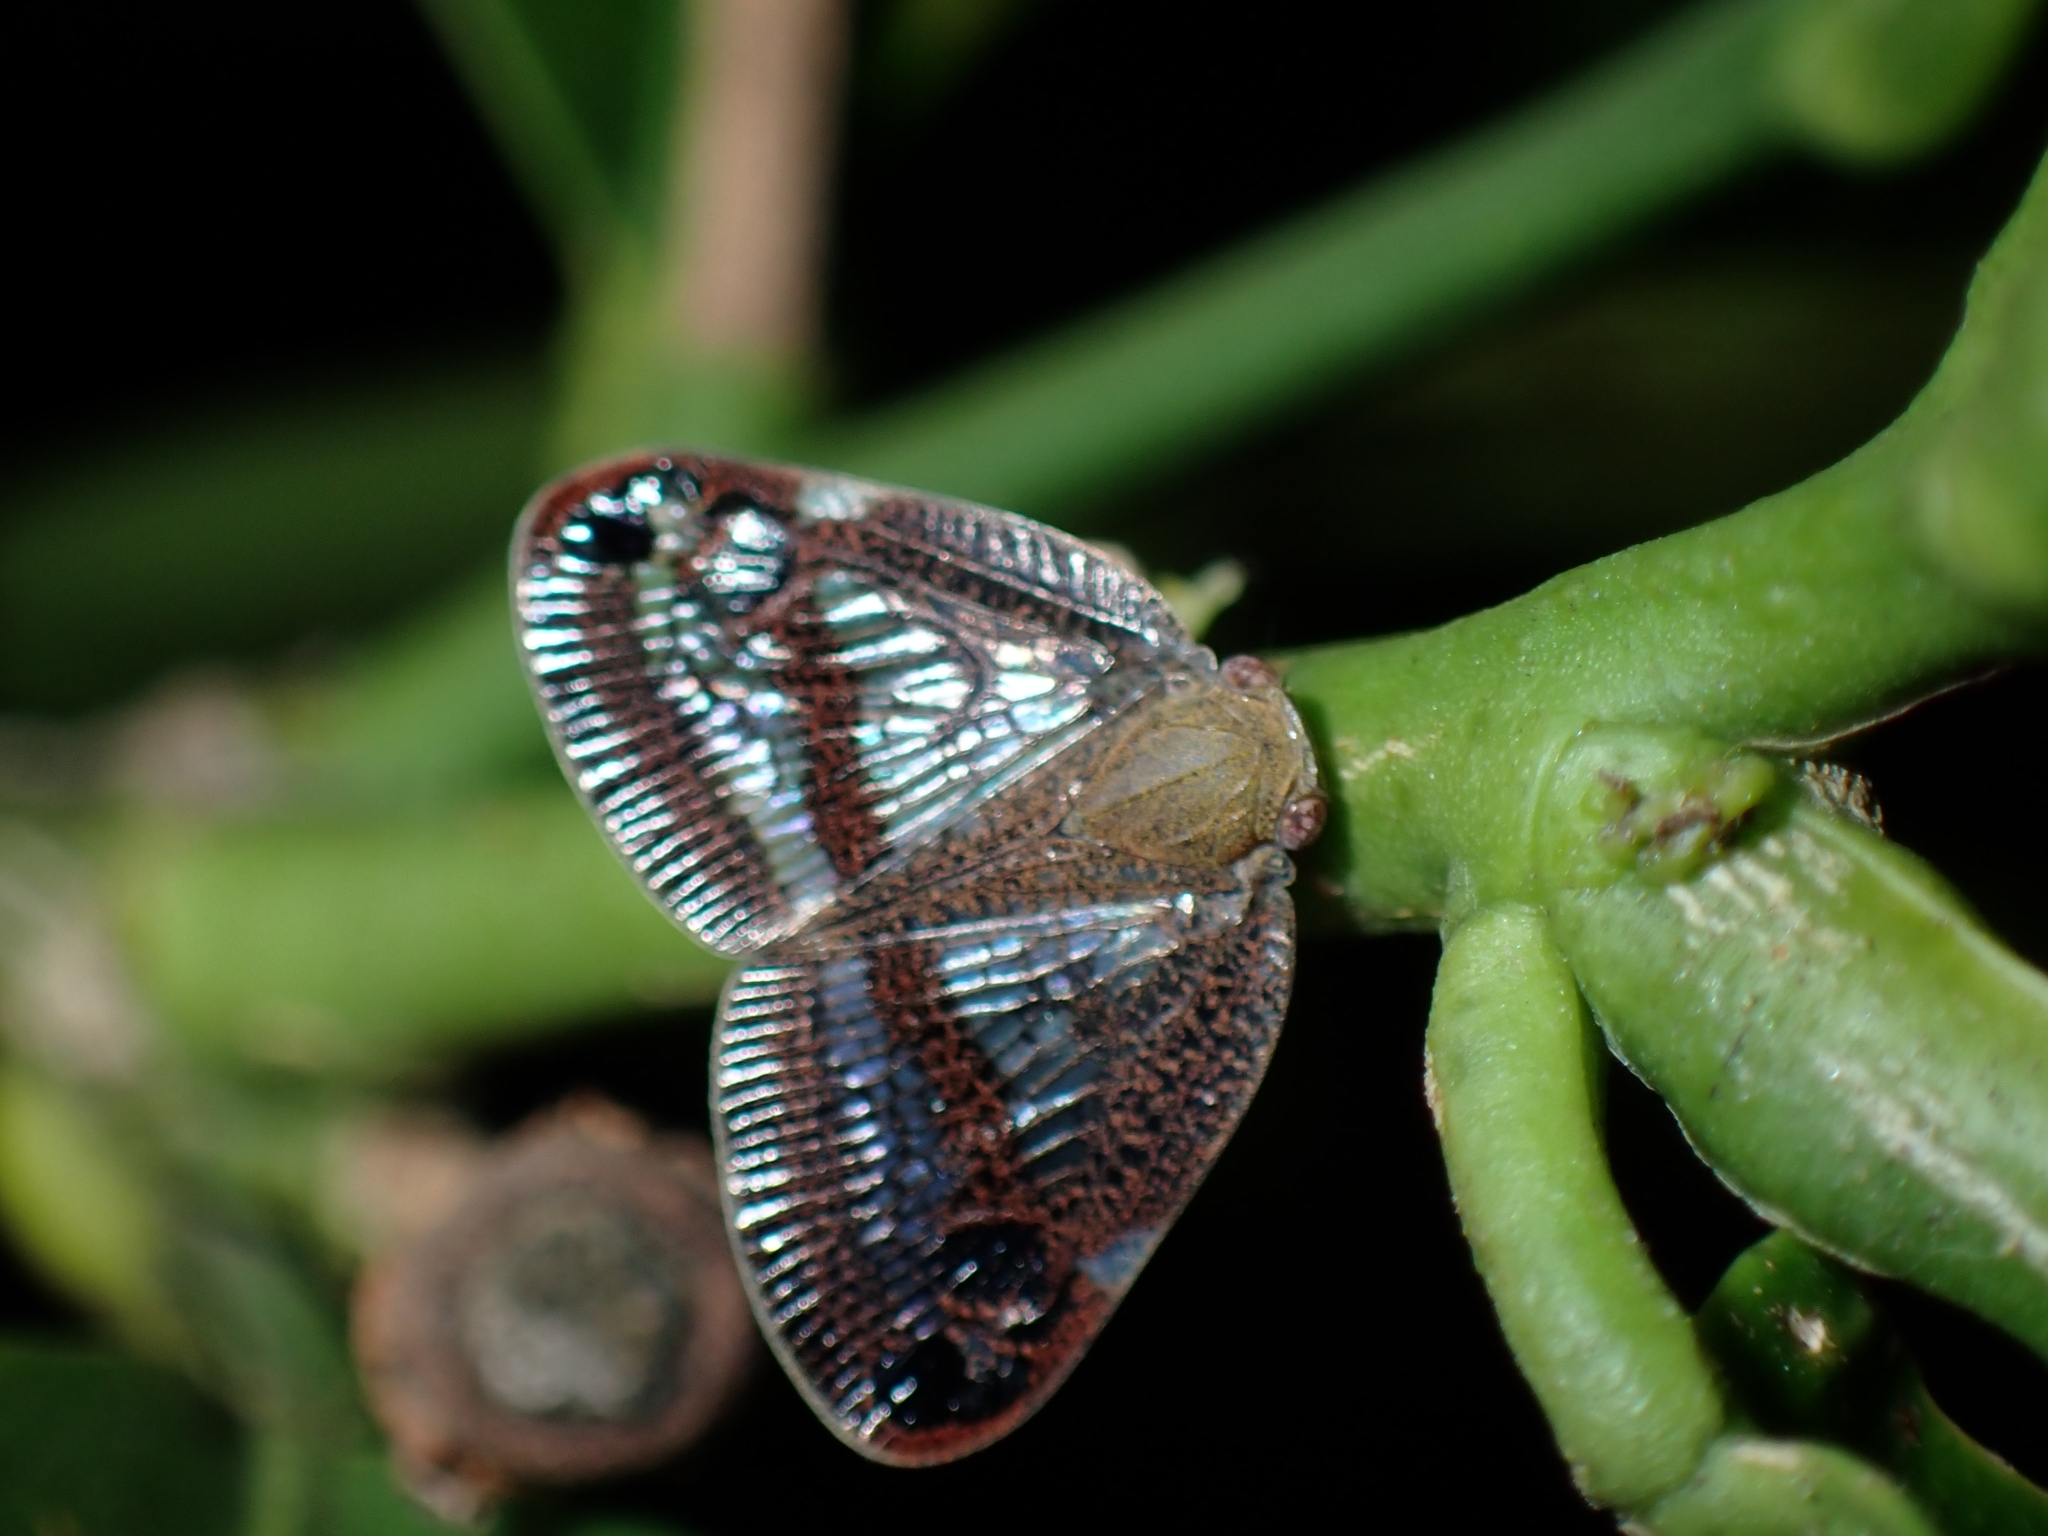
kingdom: Animalia
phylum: Arthropoda
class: Insecta
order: Hemiptera
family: Ricaniidae
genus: Parapiromis
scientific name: Parapiromis translucida
